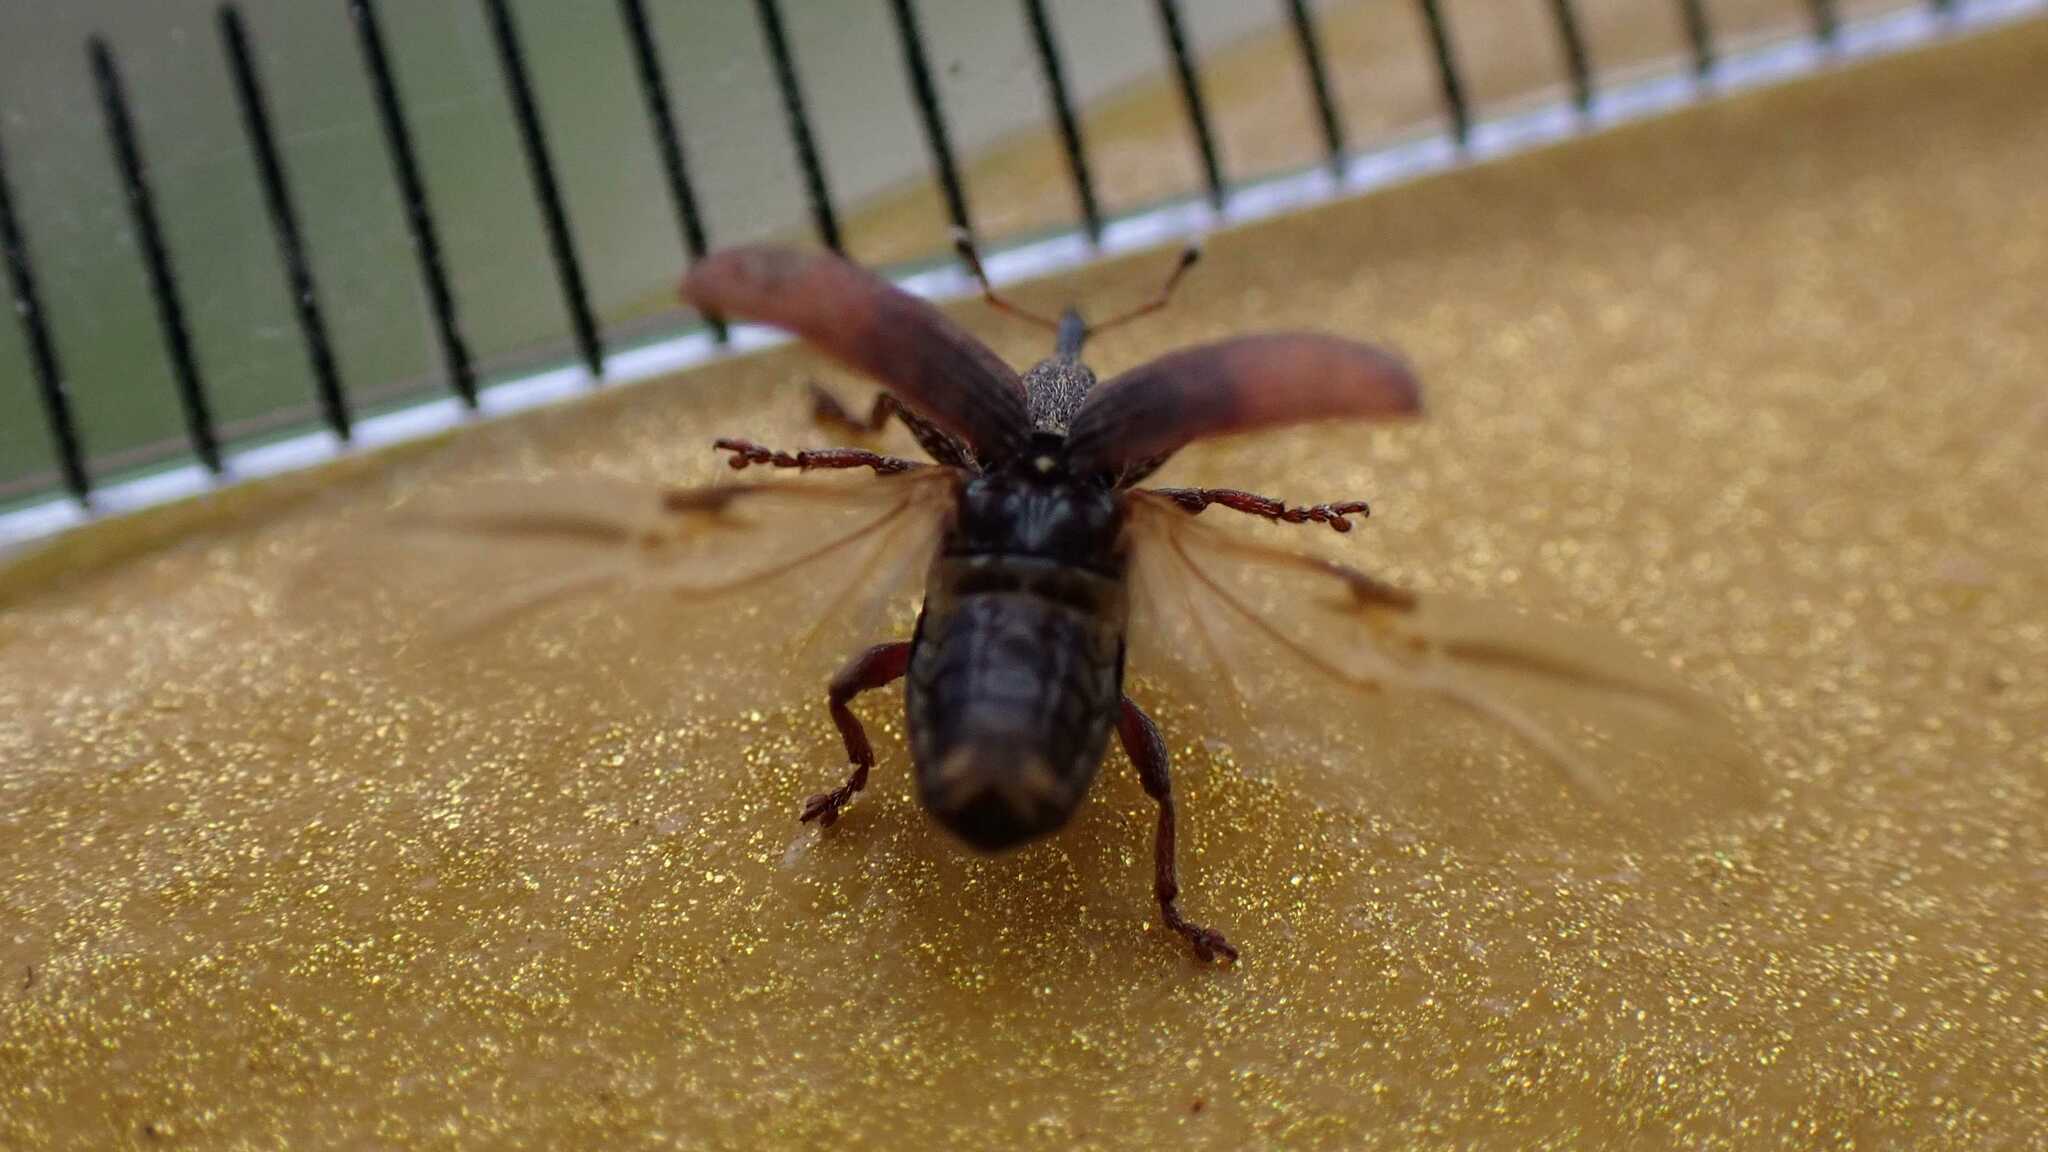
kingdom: Animalia
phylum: Arthropoda
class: Insecta
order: Coleoptera
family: Curculionidae
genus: Bradybatus
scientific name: Bradybatus kellneri
